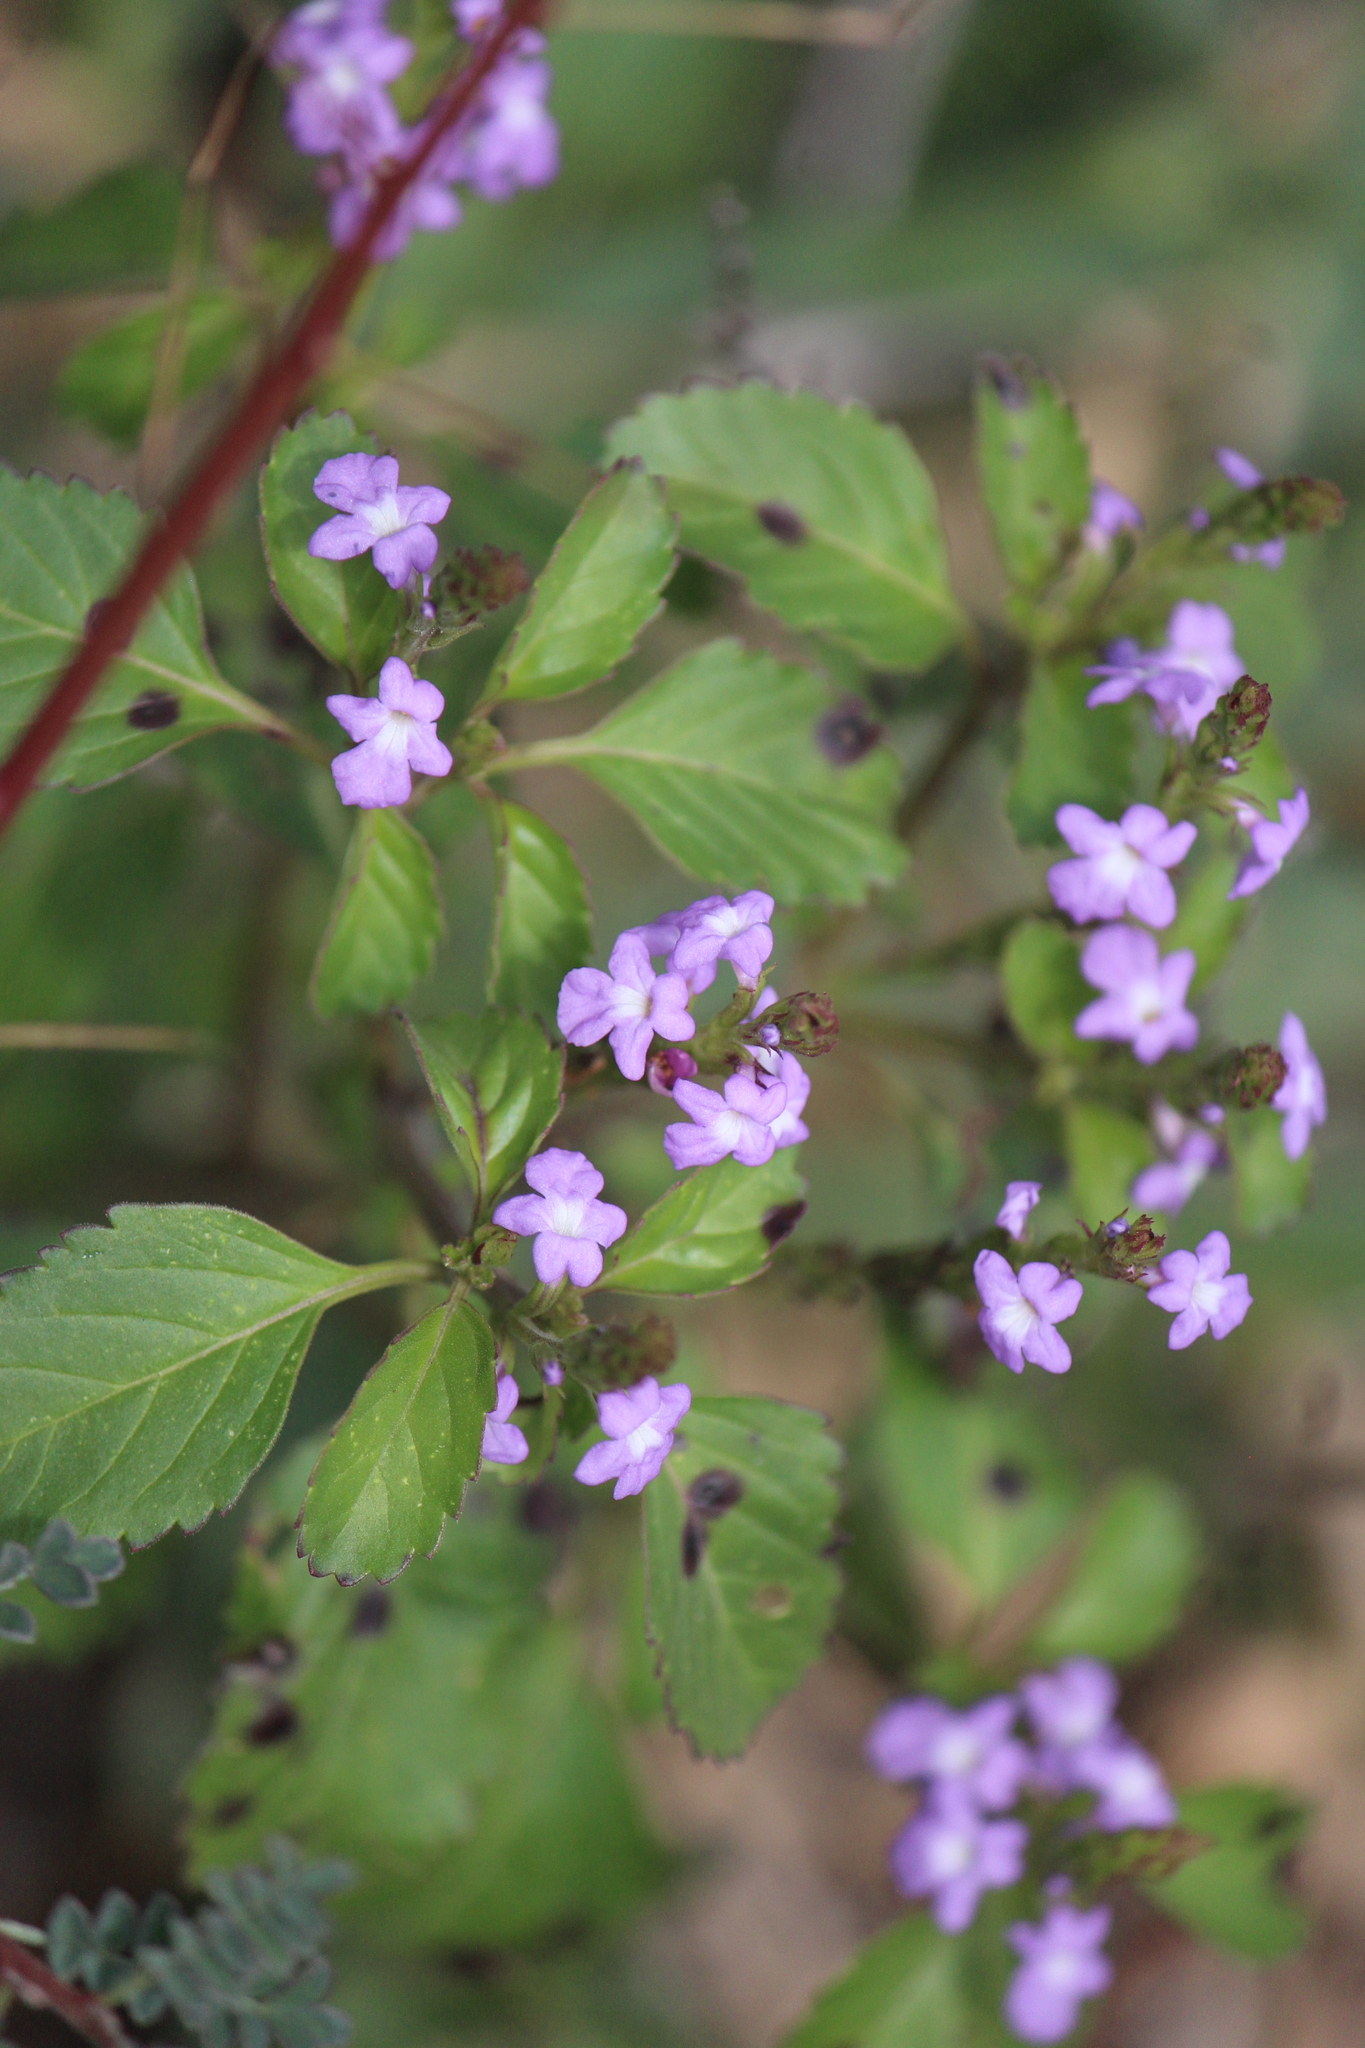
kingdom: Plantae
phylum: Tracheophyta
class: Magnoliopsida
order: Lamiales
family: Verbenaceae
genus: Bouchea
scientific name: Bouchea prismatica
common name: Vervine
